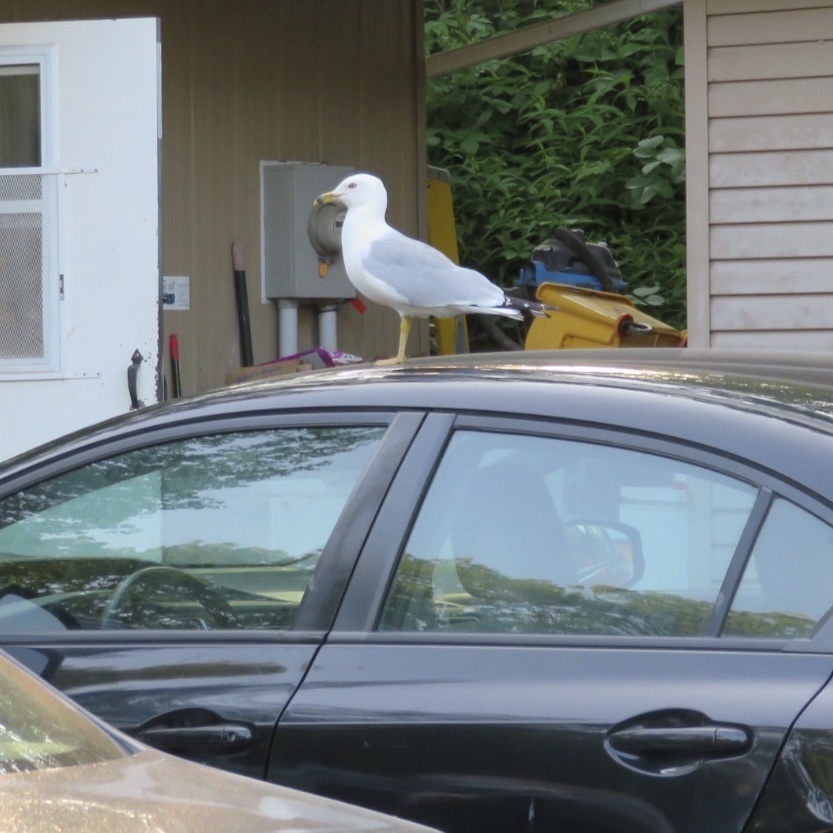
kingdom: Animalia
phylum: Chordata
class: Aves
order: Charadriiformes
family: Laridae
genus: Larus
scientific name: Larus delawarensis
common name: Ring-billed gull
